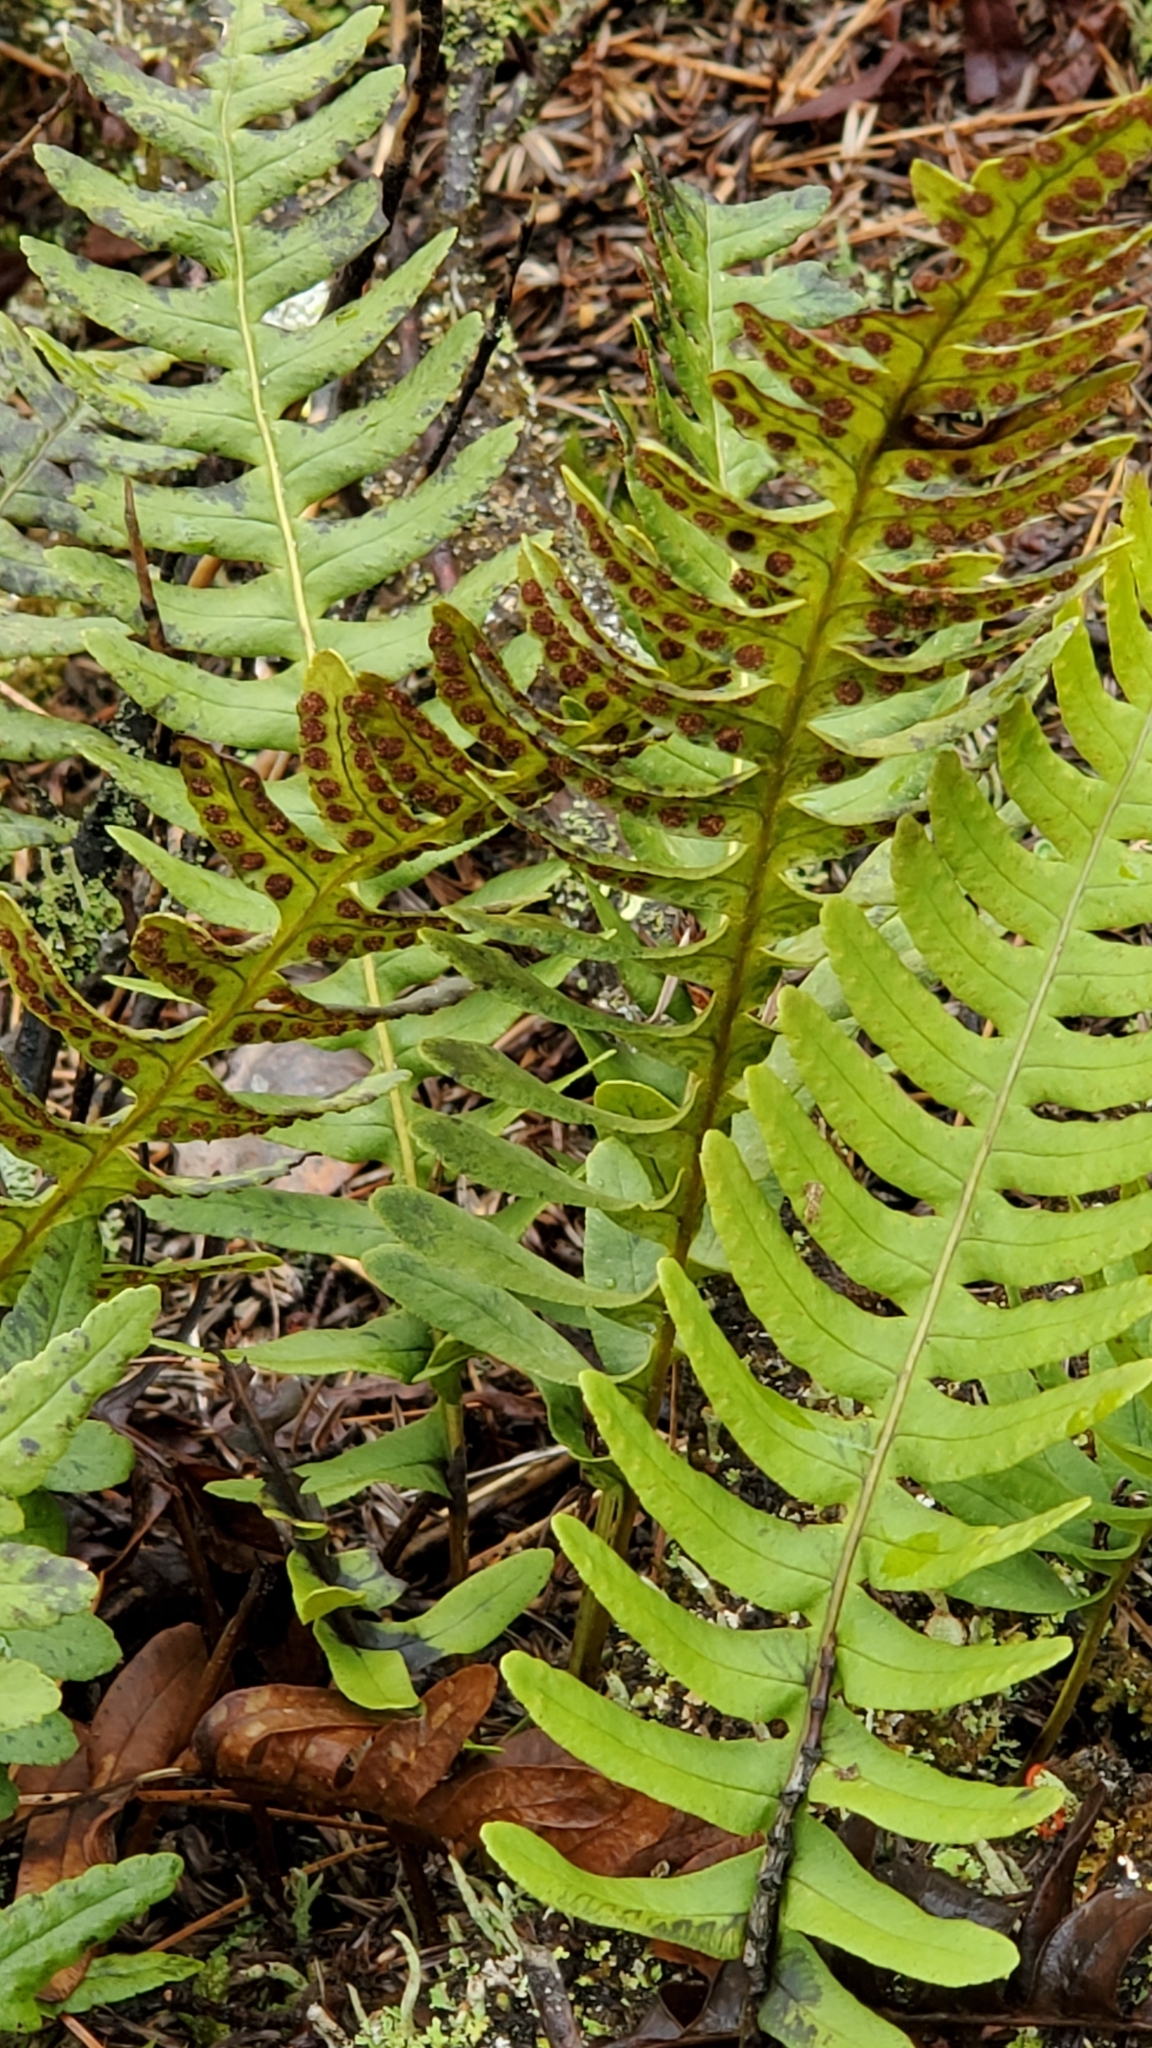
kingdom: Plantae
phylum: Tracheophyta
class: Polypodiopsida
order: Polypodiales
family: Polypodiaceae
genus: Polypodium
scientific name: Polypodium virginianum
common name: American wall fern
